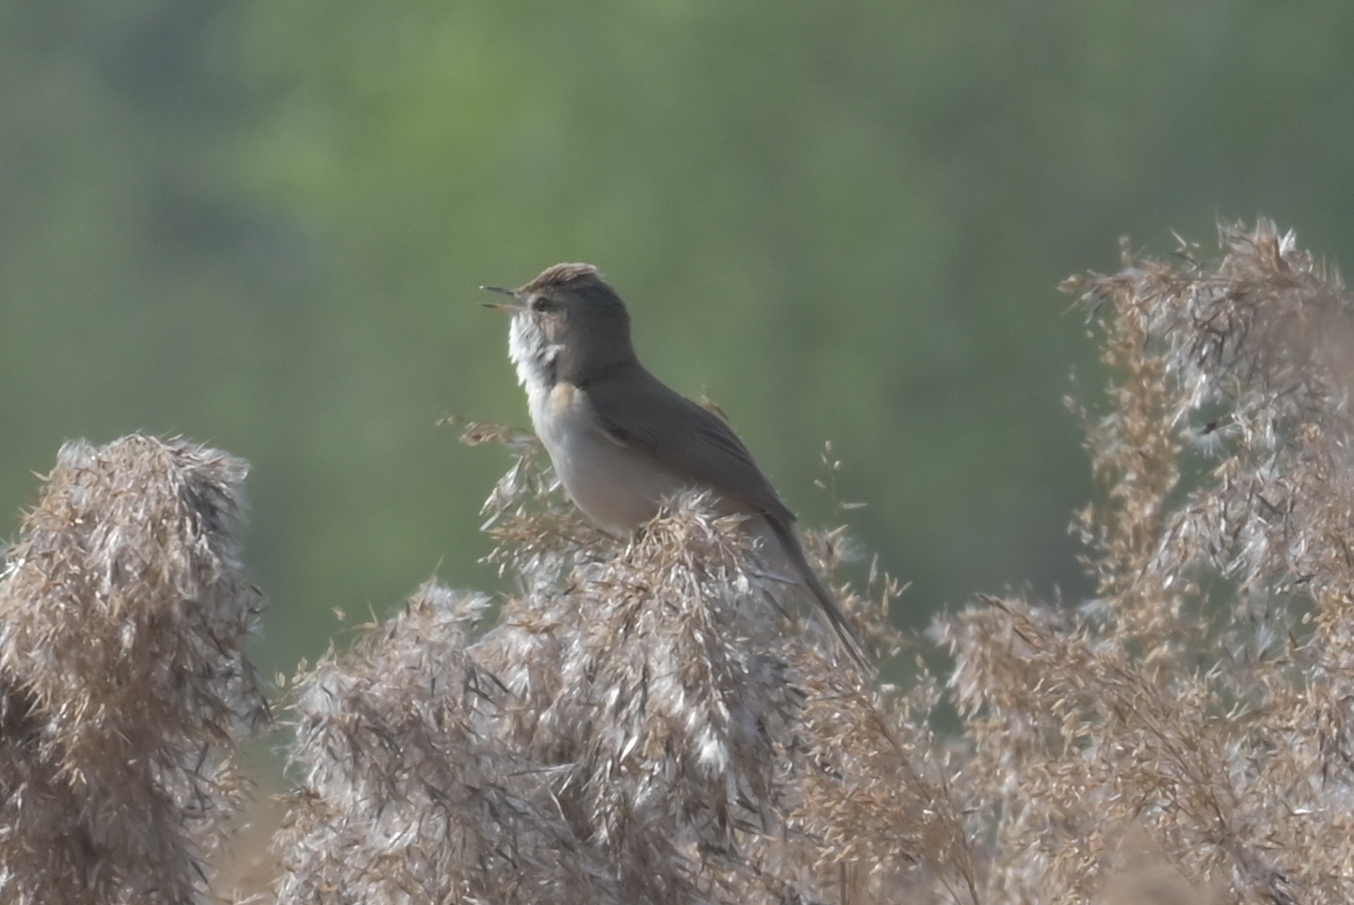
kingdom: Animalia
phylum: Chordata
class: Aves
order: Passeriformes
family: Acrocephalidae
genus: Acrocephalus
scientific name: Acrocephalus agricola
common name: Paddyfield warbler
